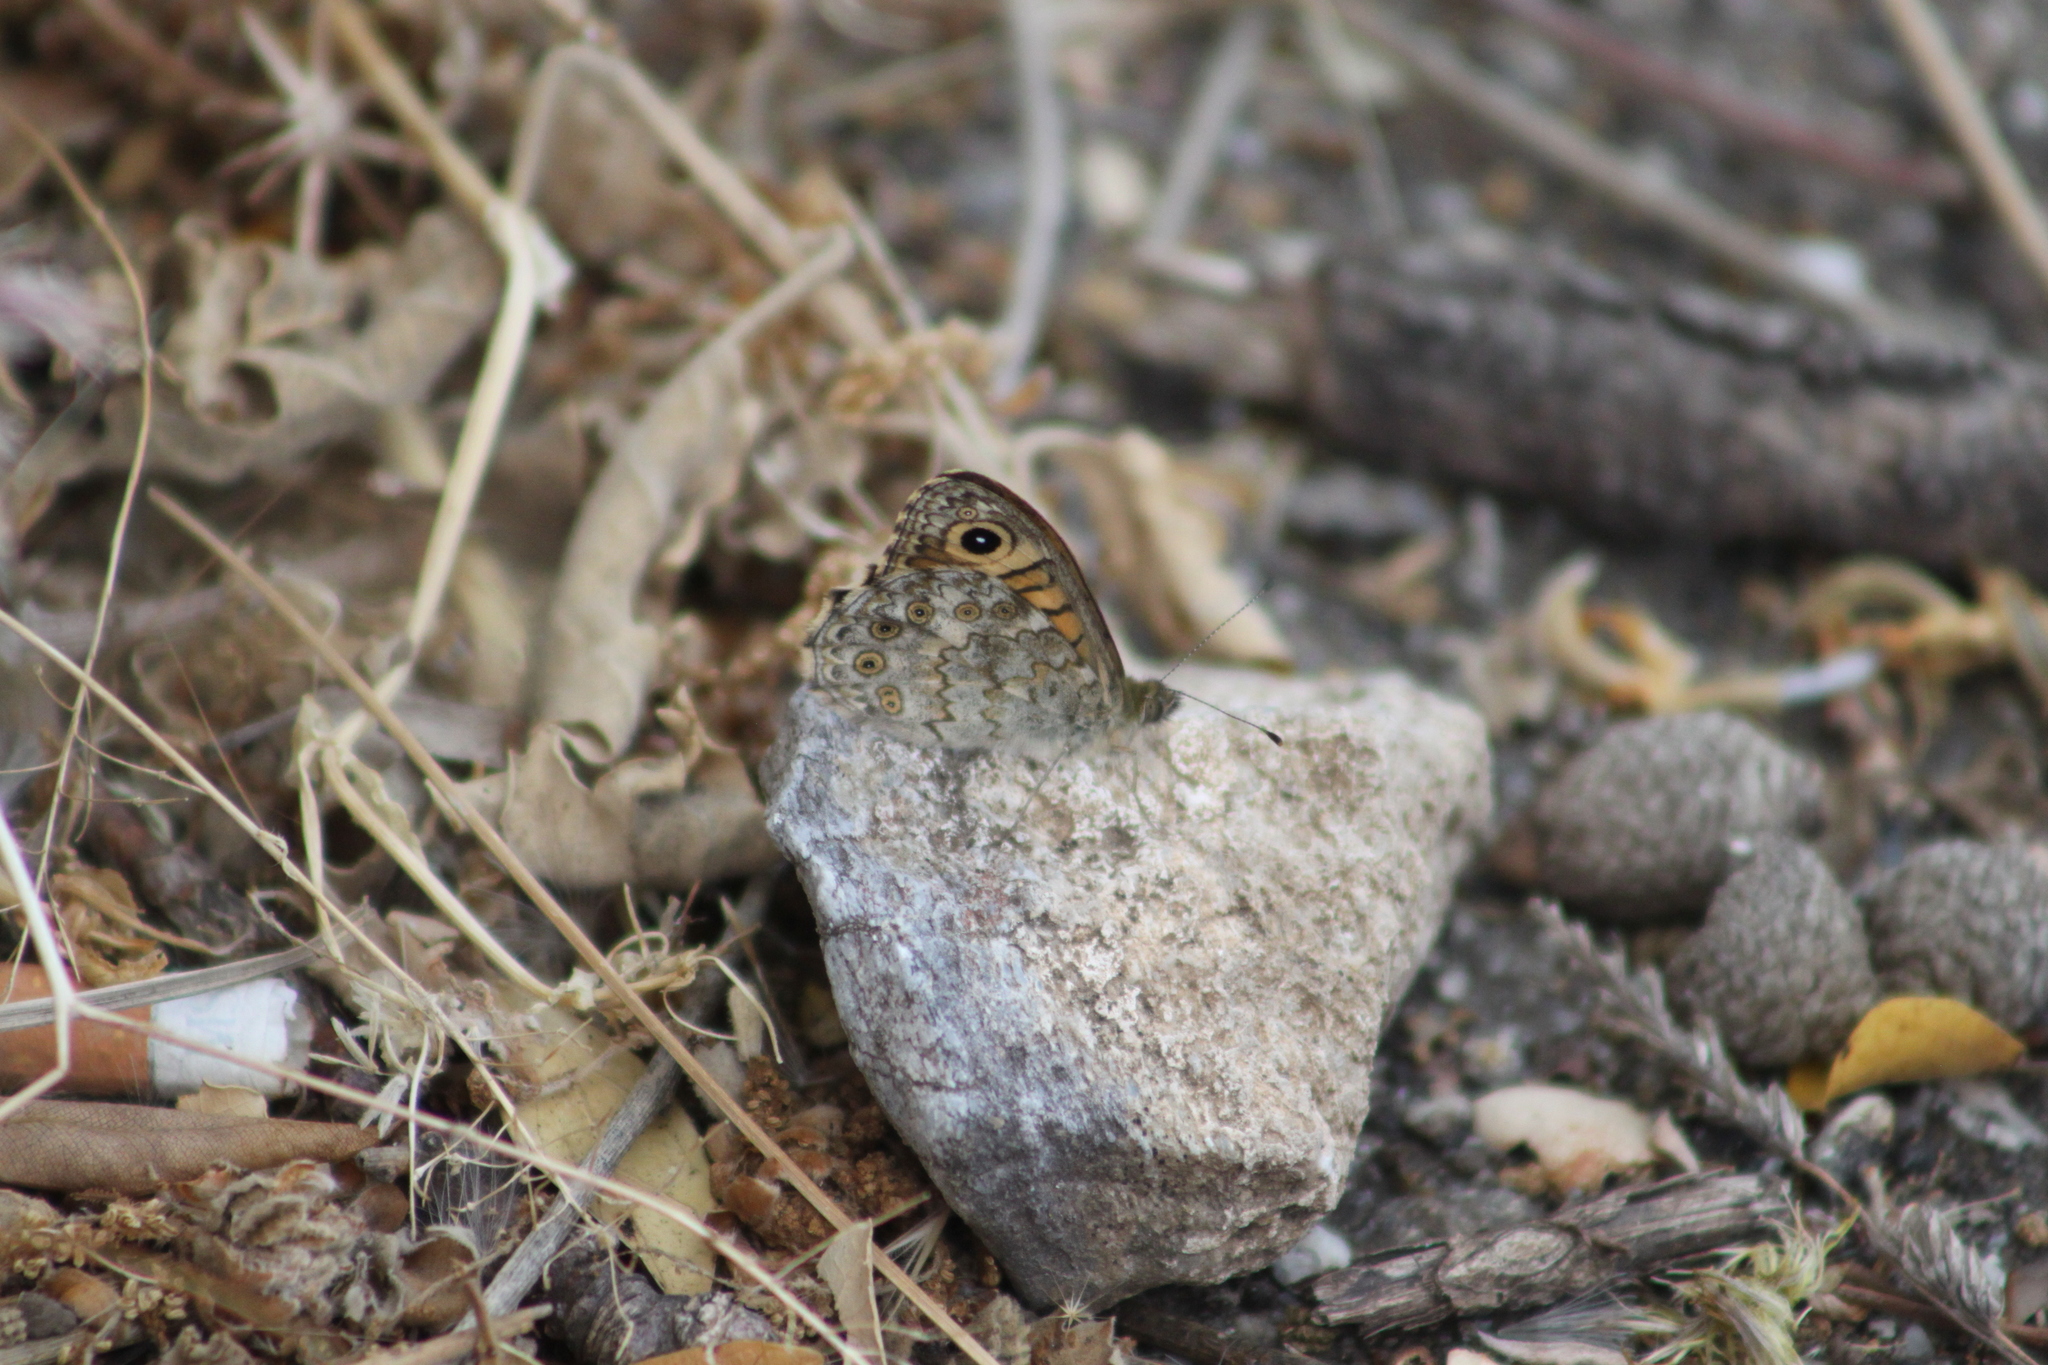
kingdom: Animalia
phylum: Arthropoda
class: Insecta
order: Lepidoptera
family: Nymphalidae
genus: Pararge
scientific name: Pararge Lasiommata megera
